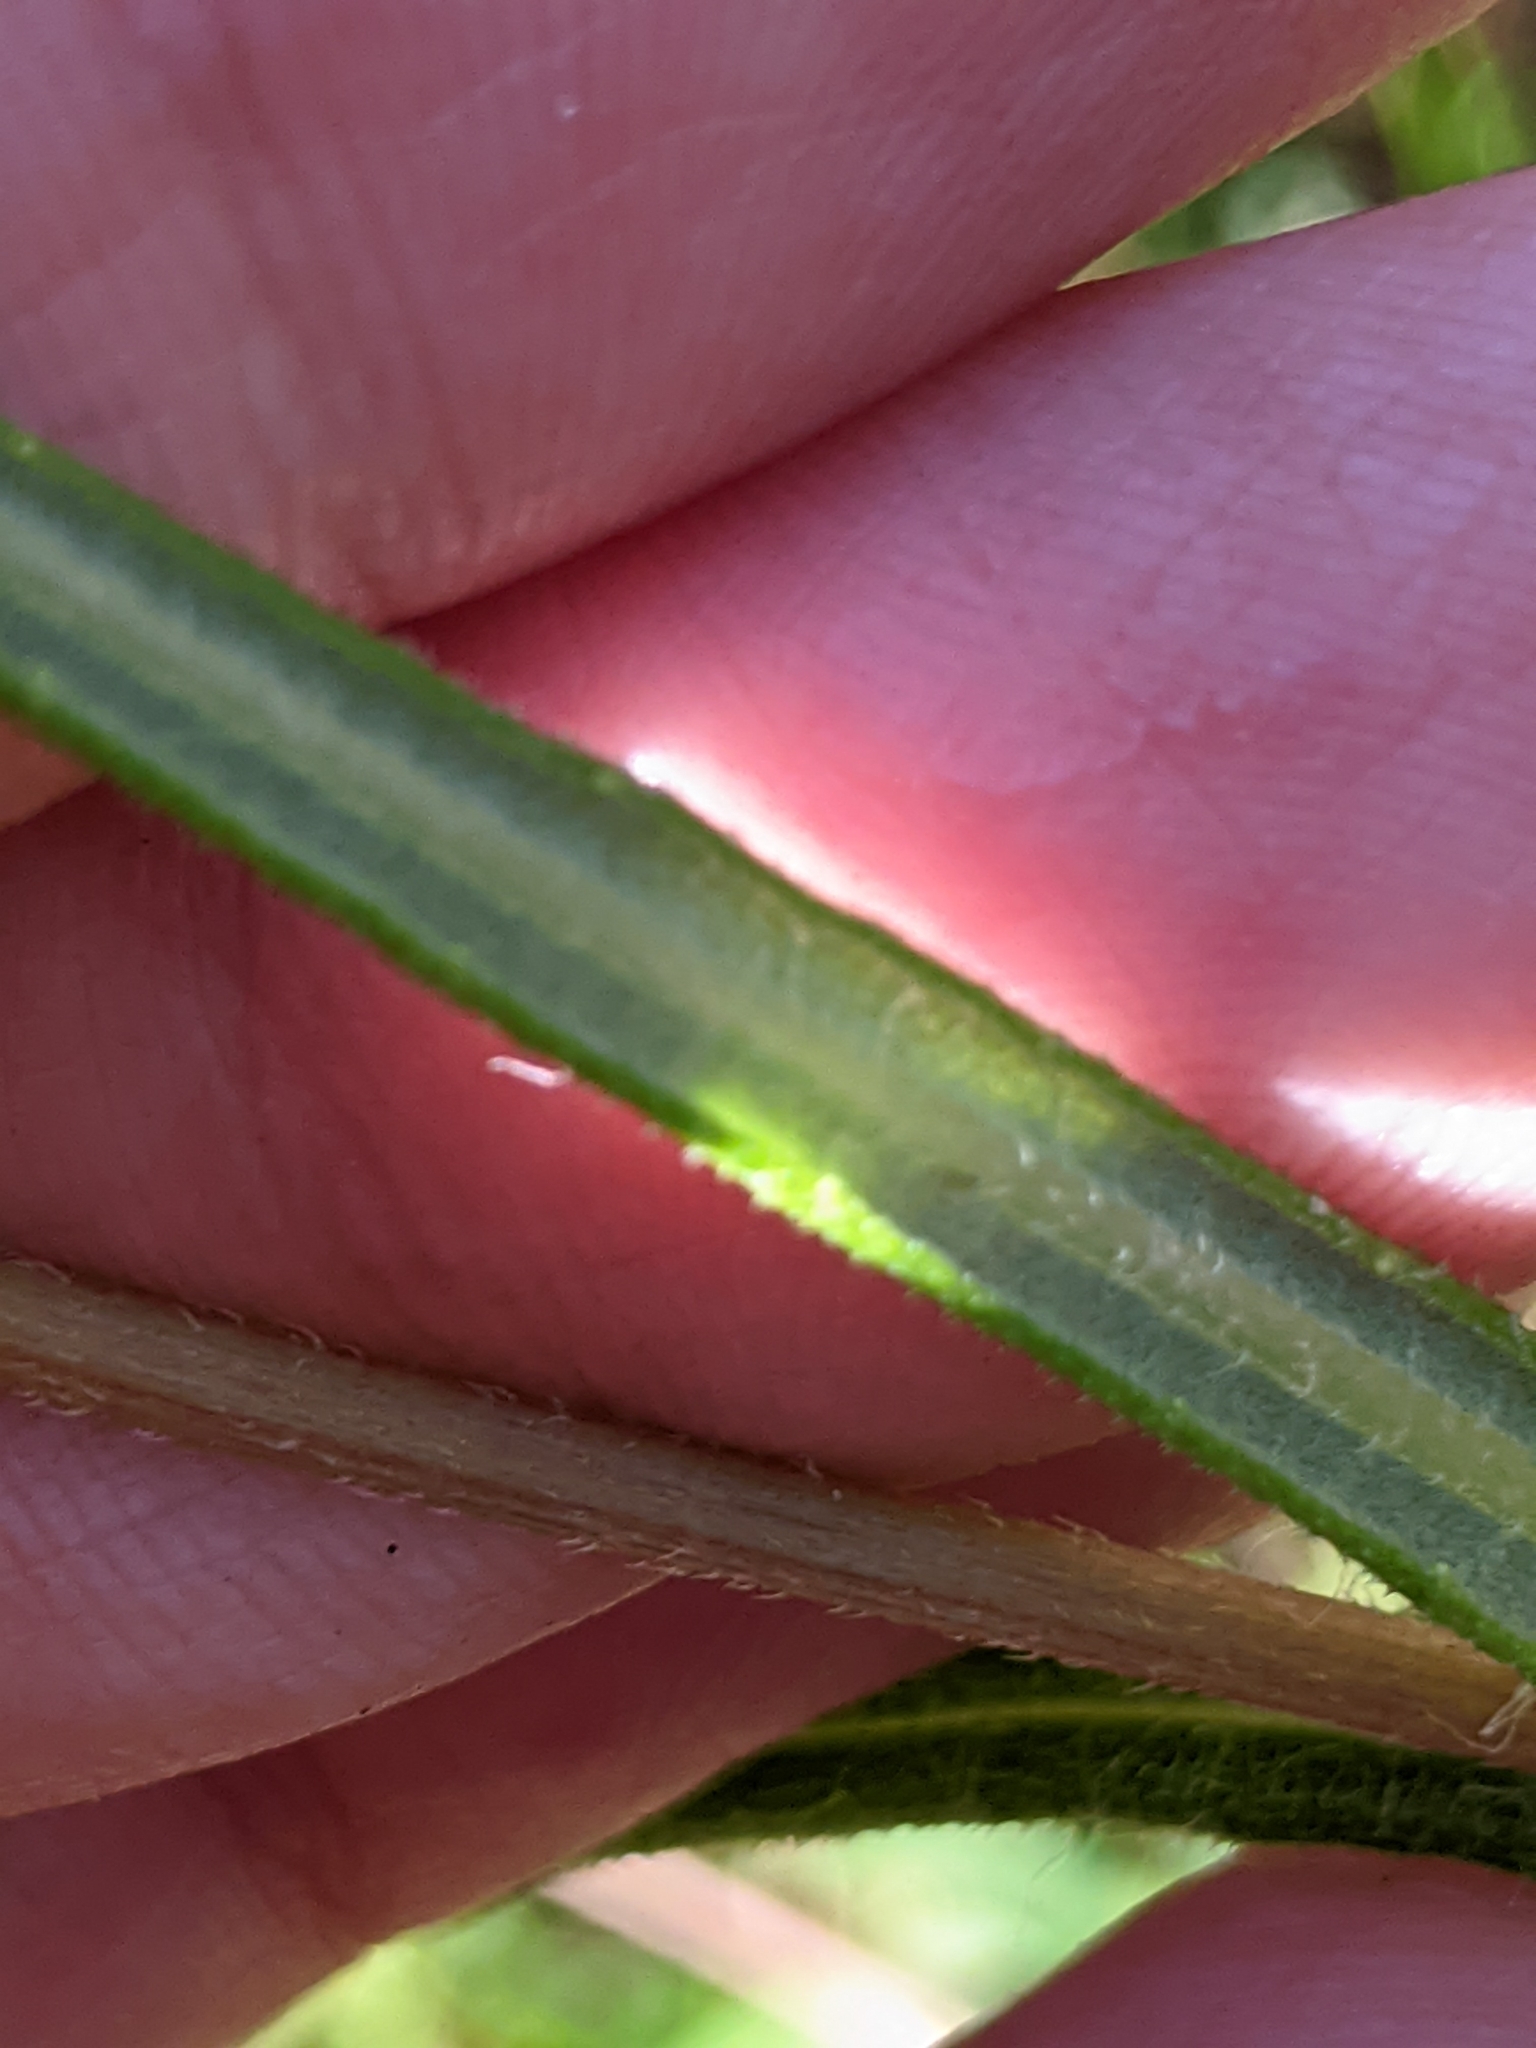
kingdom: Plantae
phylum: Tracheophyta
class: Magnoliopsida
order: Asterales
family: Asteraceae
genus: Helianthus
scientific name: Helianthus angustifolius
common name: Swamp sunflower
